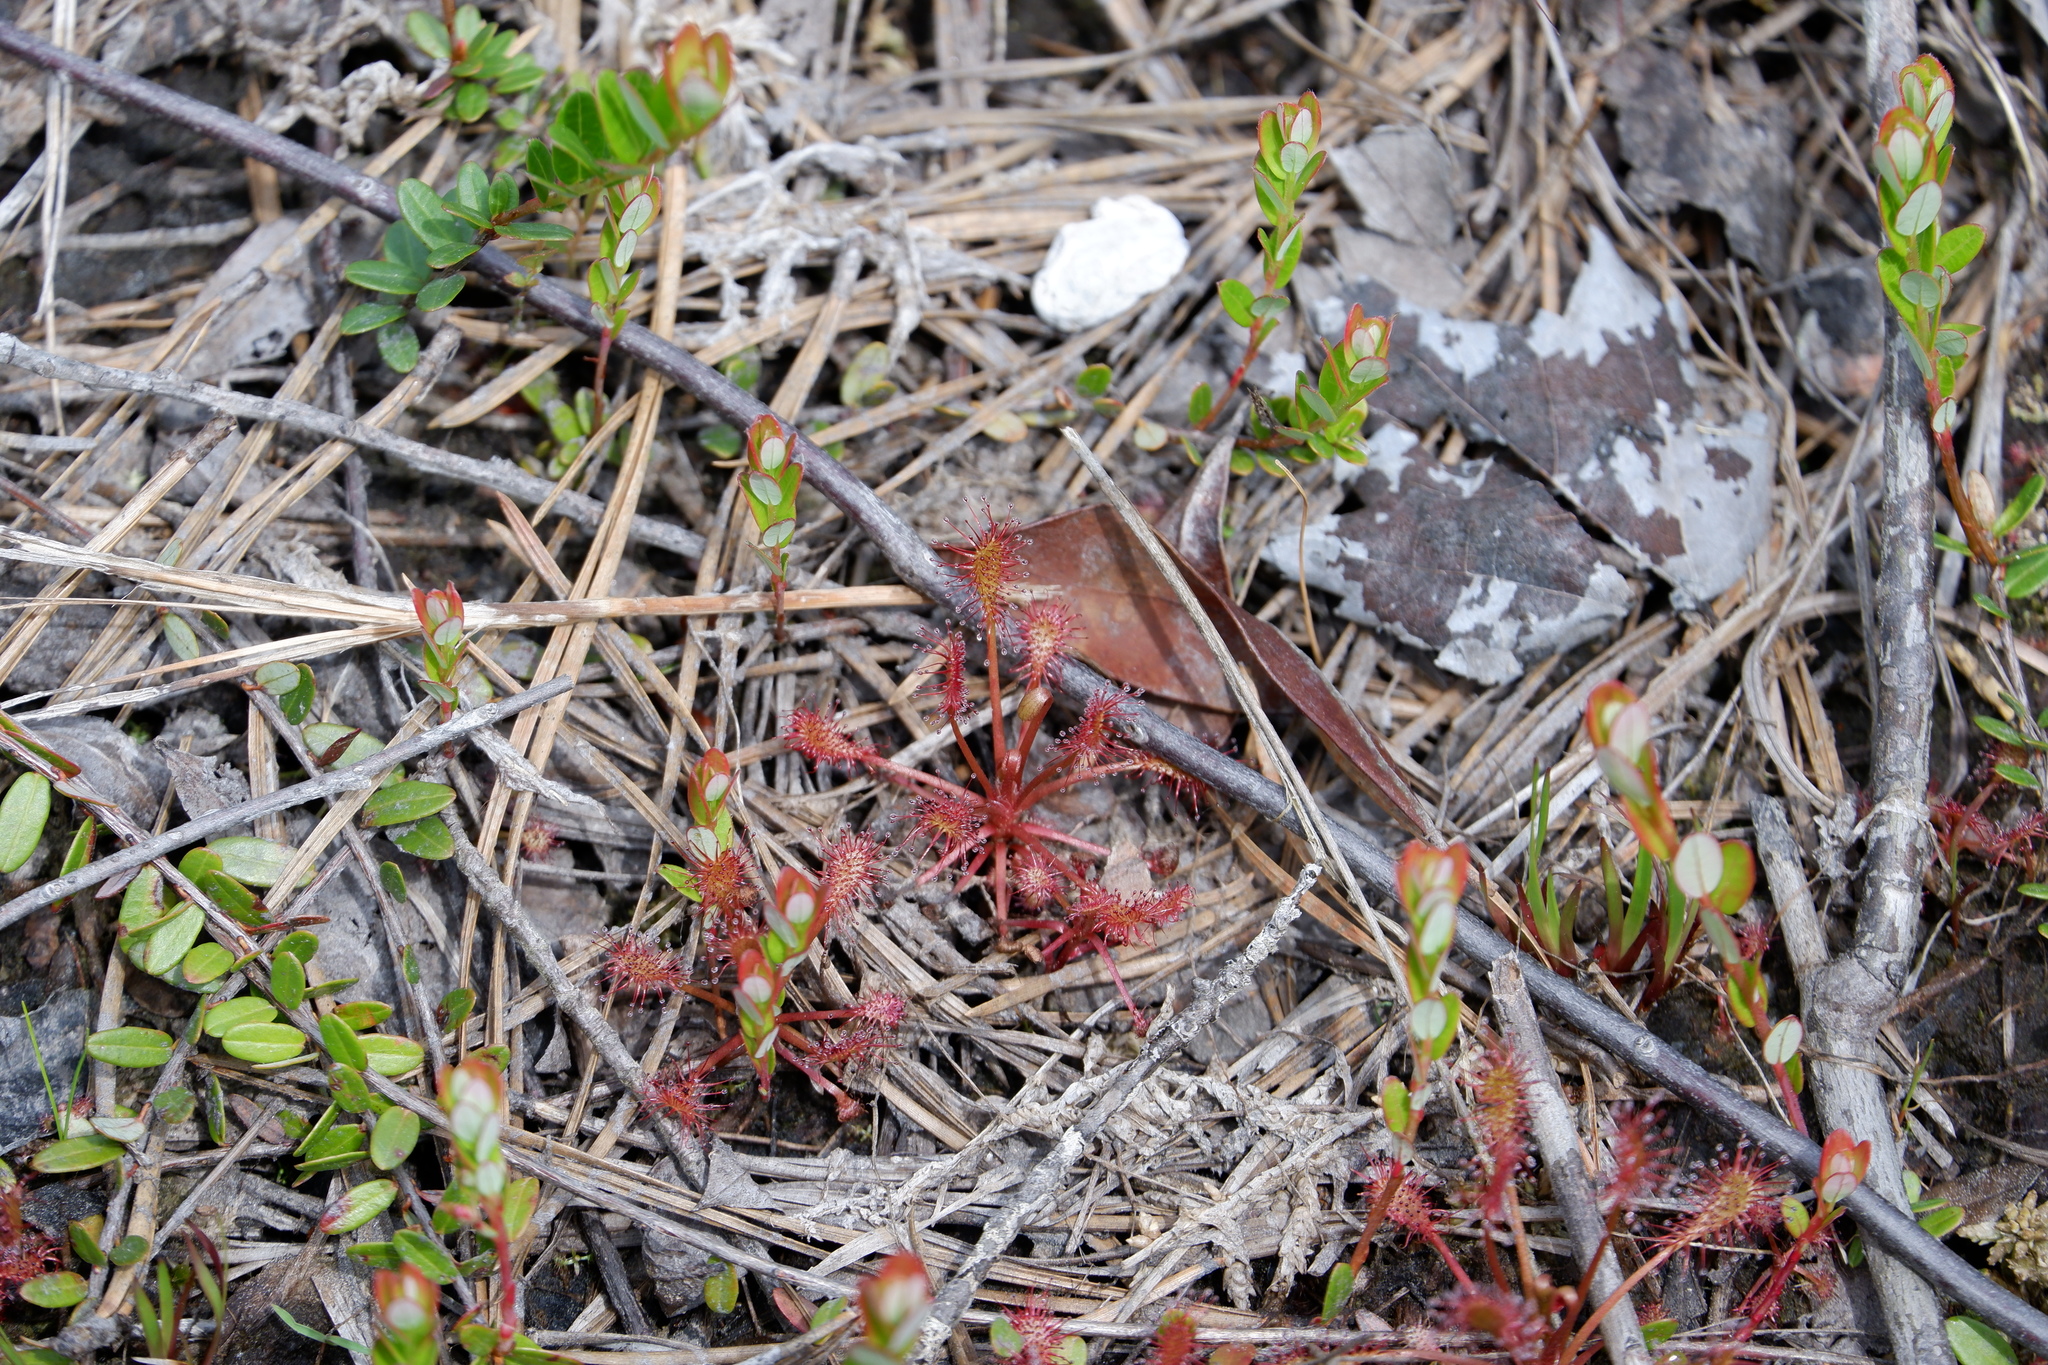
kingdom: Plantae
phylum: Tracheophyta
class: Magnoliopsida
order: Caryophyllales
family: Droseraceae
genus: Drosera
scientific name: Drosera intermedia
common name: Oblong-leaved sundew
